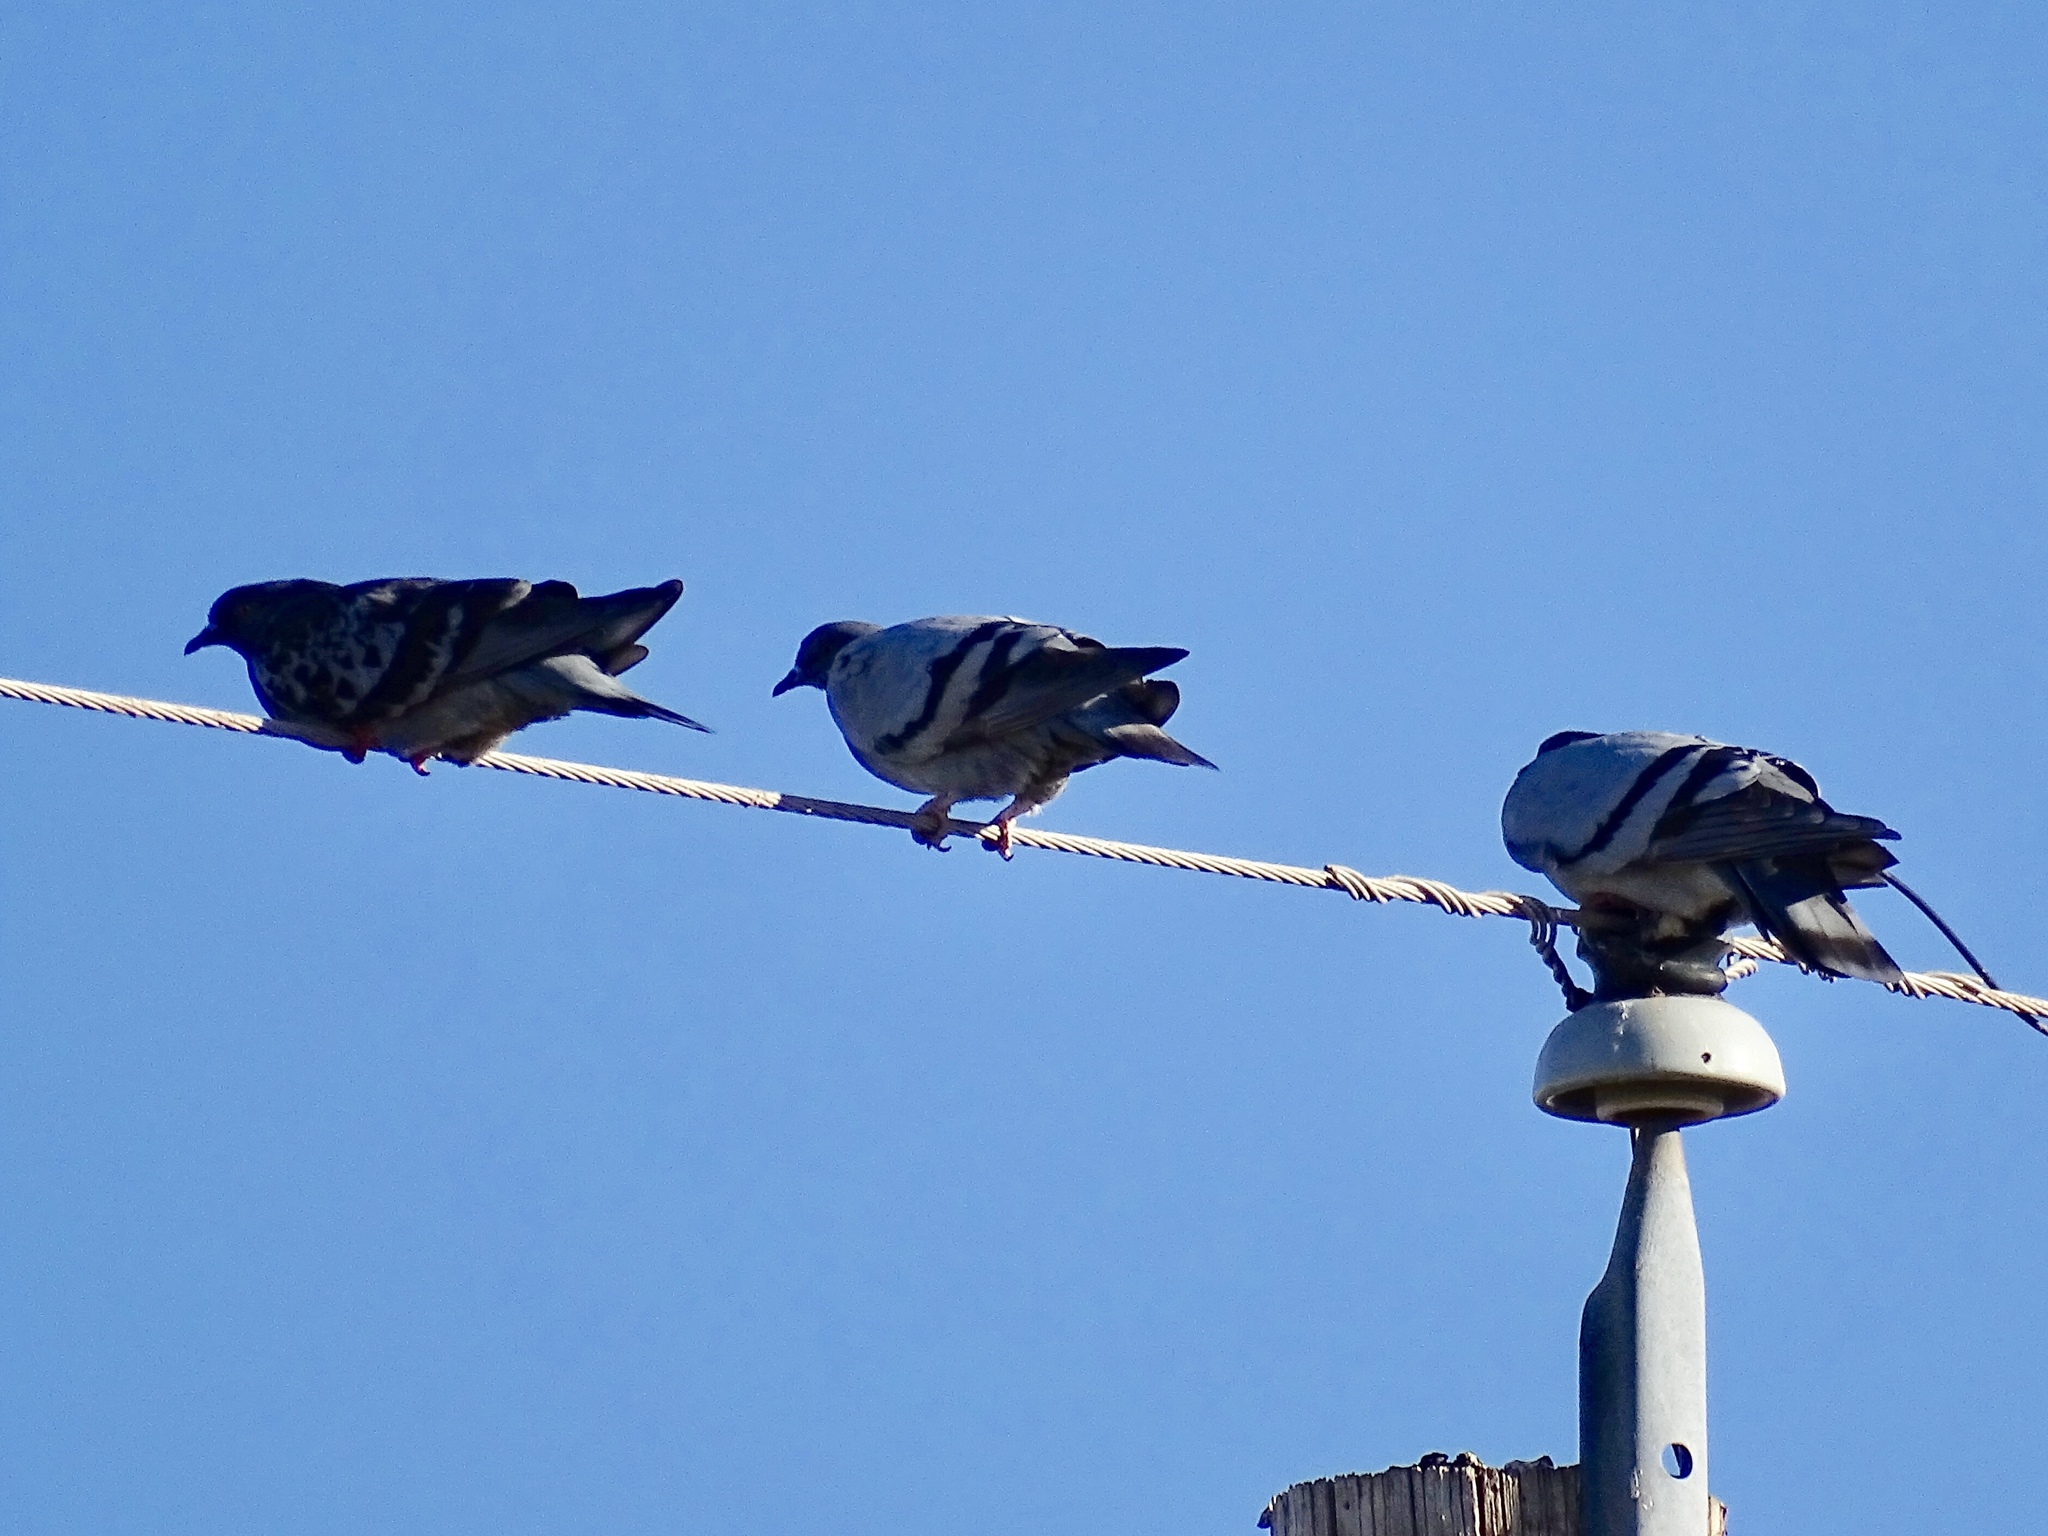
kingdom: Animalia
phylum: Chordata
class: Aves
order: Columbiformes
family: Columbidae
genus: Columba
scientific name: Columba livia
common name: Rock pigeon
